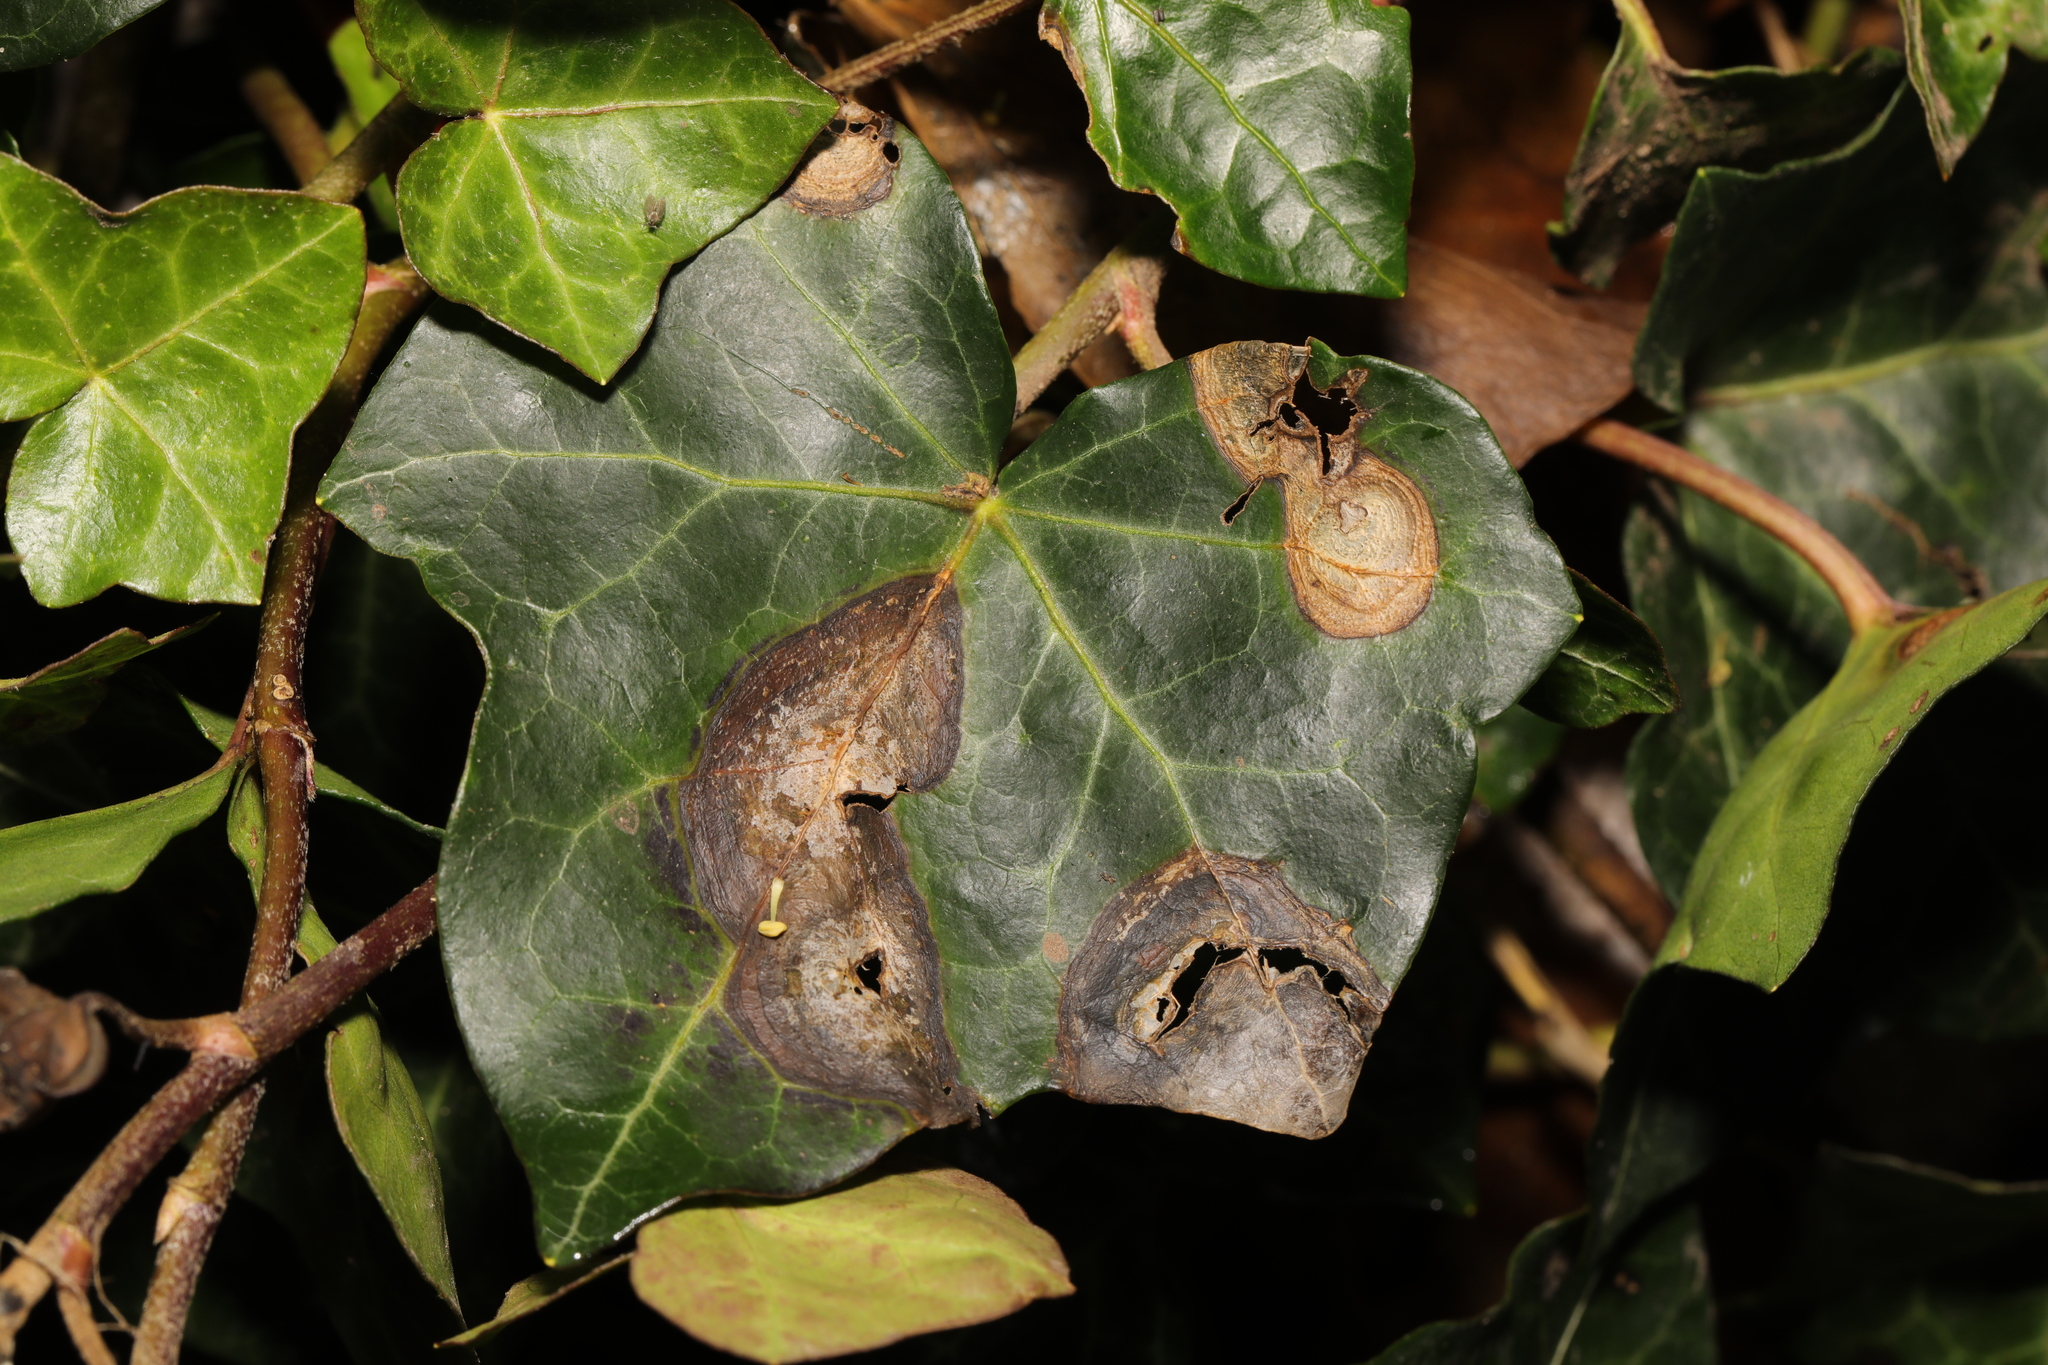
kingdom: Fungi
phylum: Ascomycota
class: Dothideomycetes
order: Pleosporales
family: Didymellaceae
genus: Boeremia
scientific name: Boeremia hedericola
